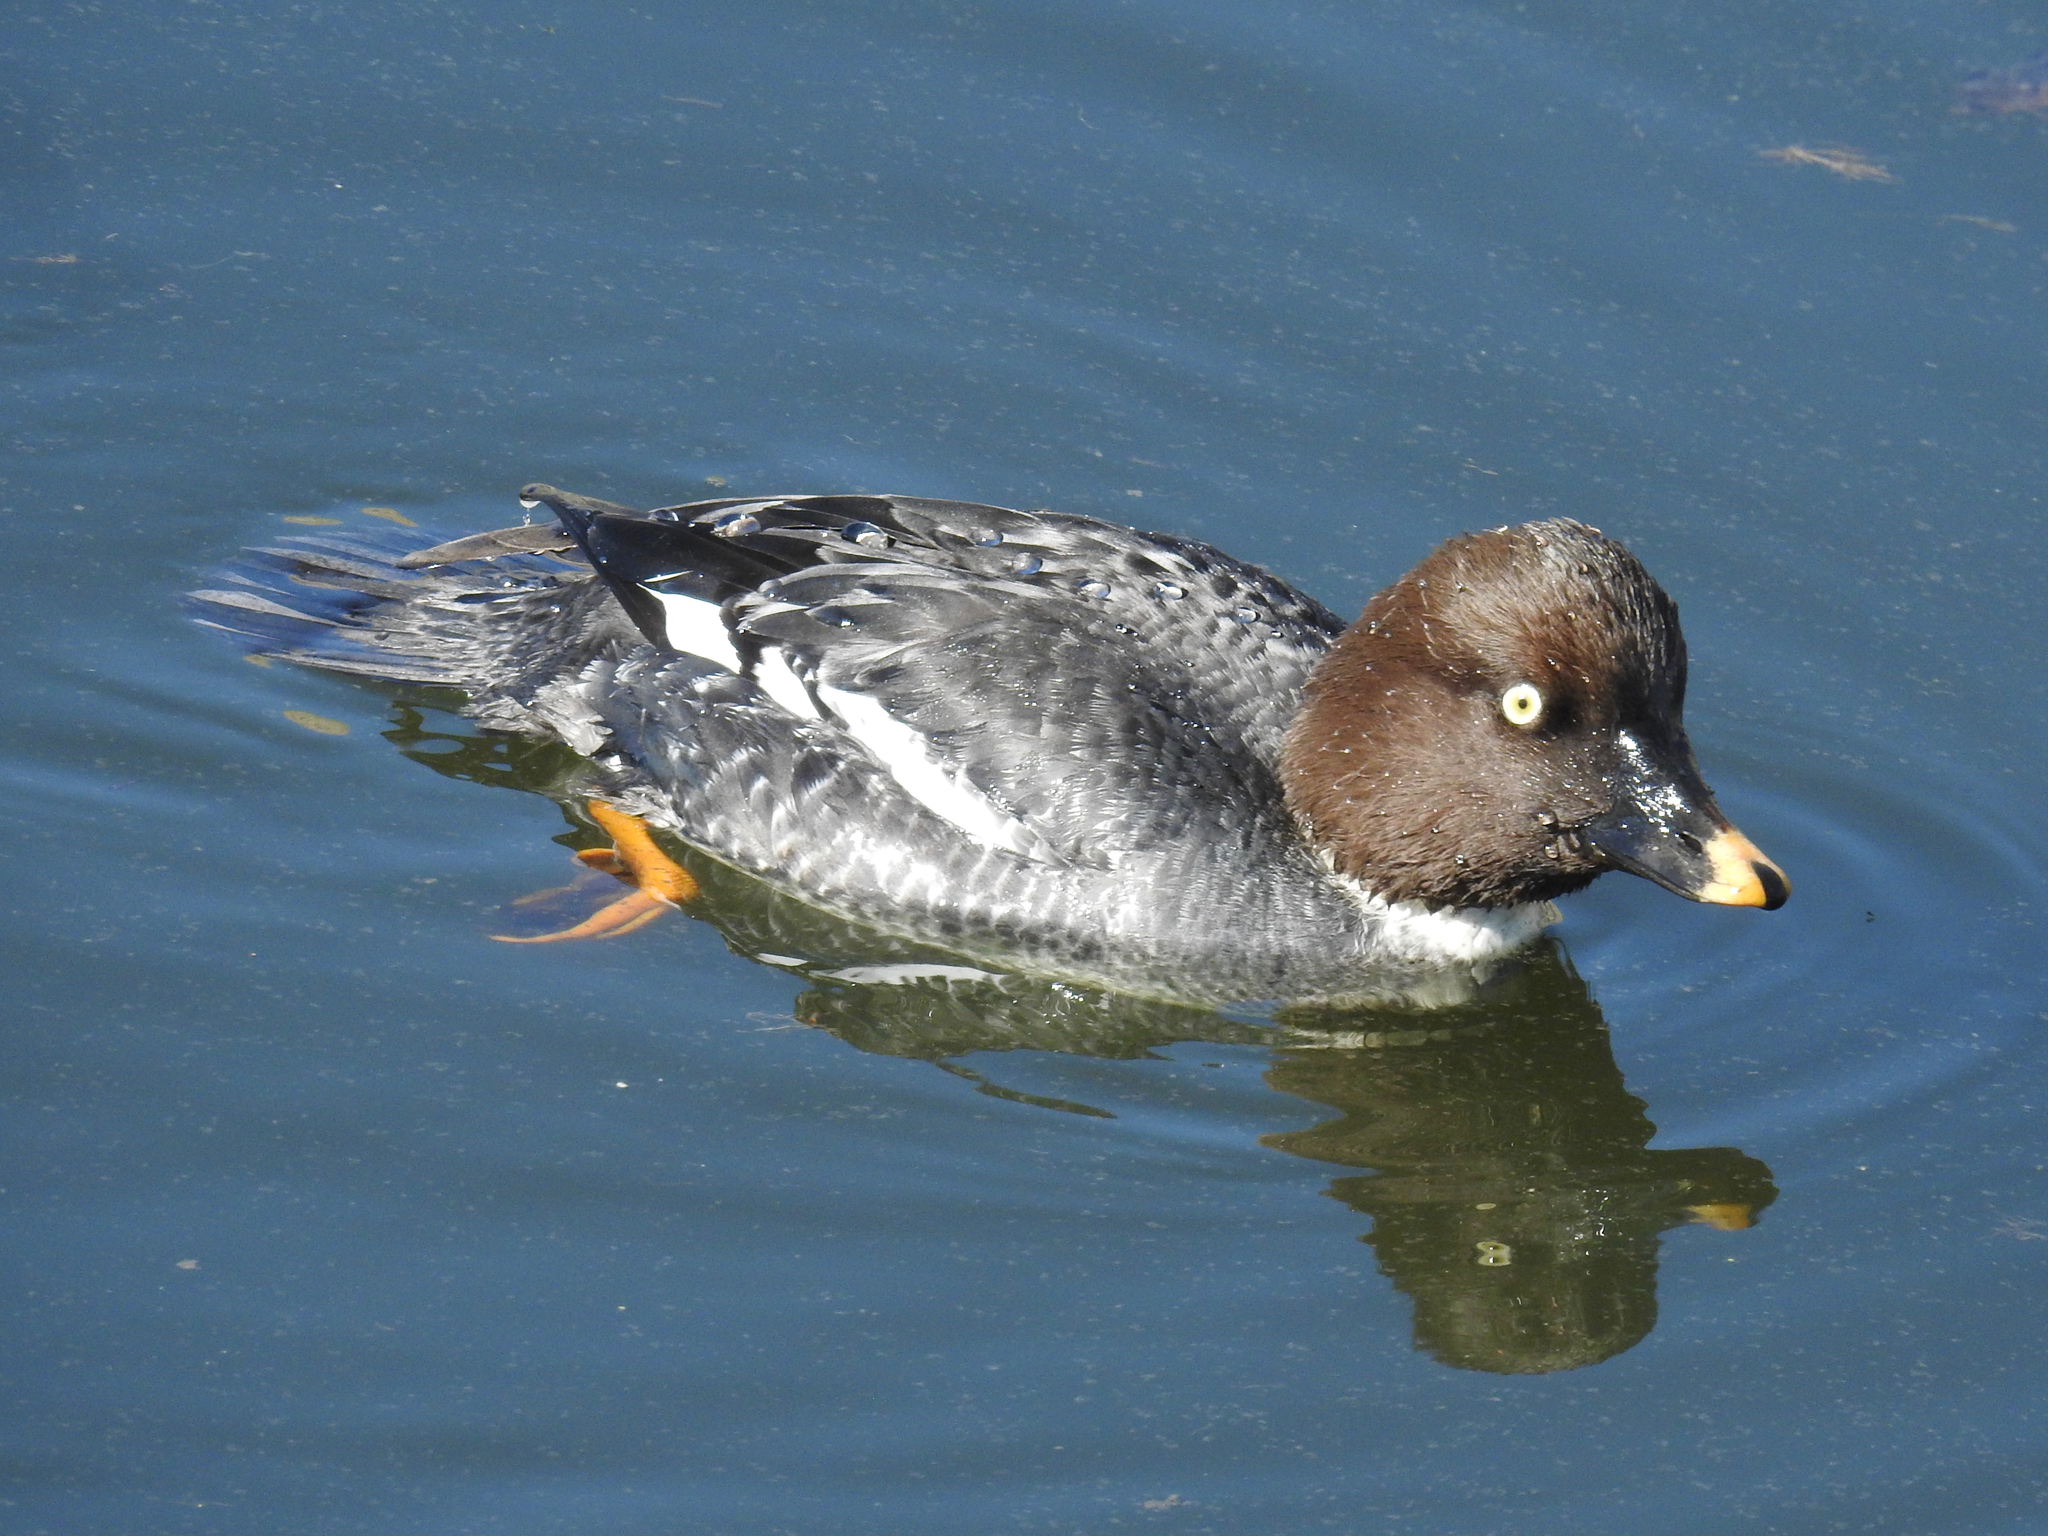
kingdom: Animalia
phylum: Chordata
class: Aves
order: Anseriformes
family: Anatidae
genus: Bucephala
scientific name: Bucephala clangula
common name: Common goldeneye
